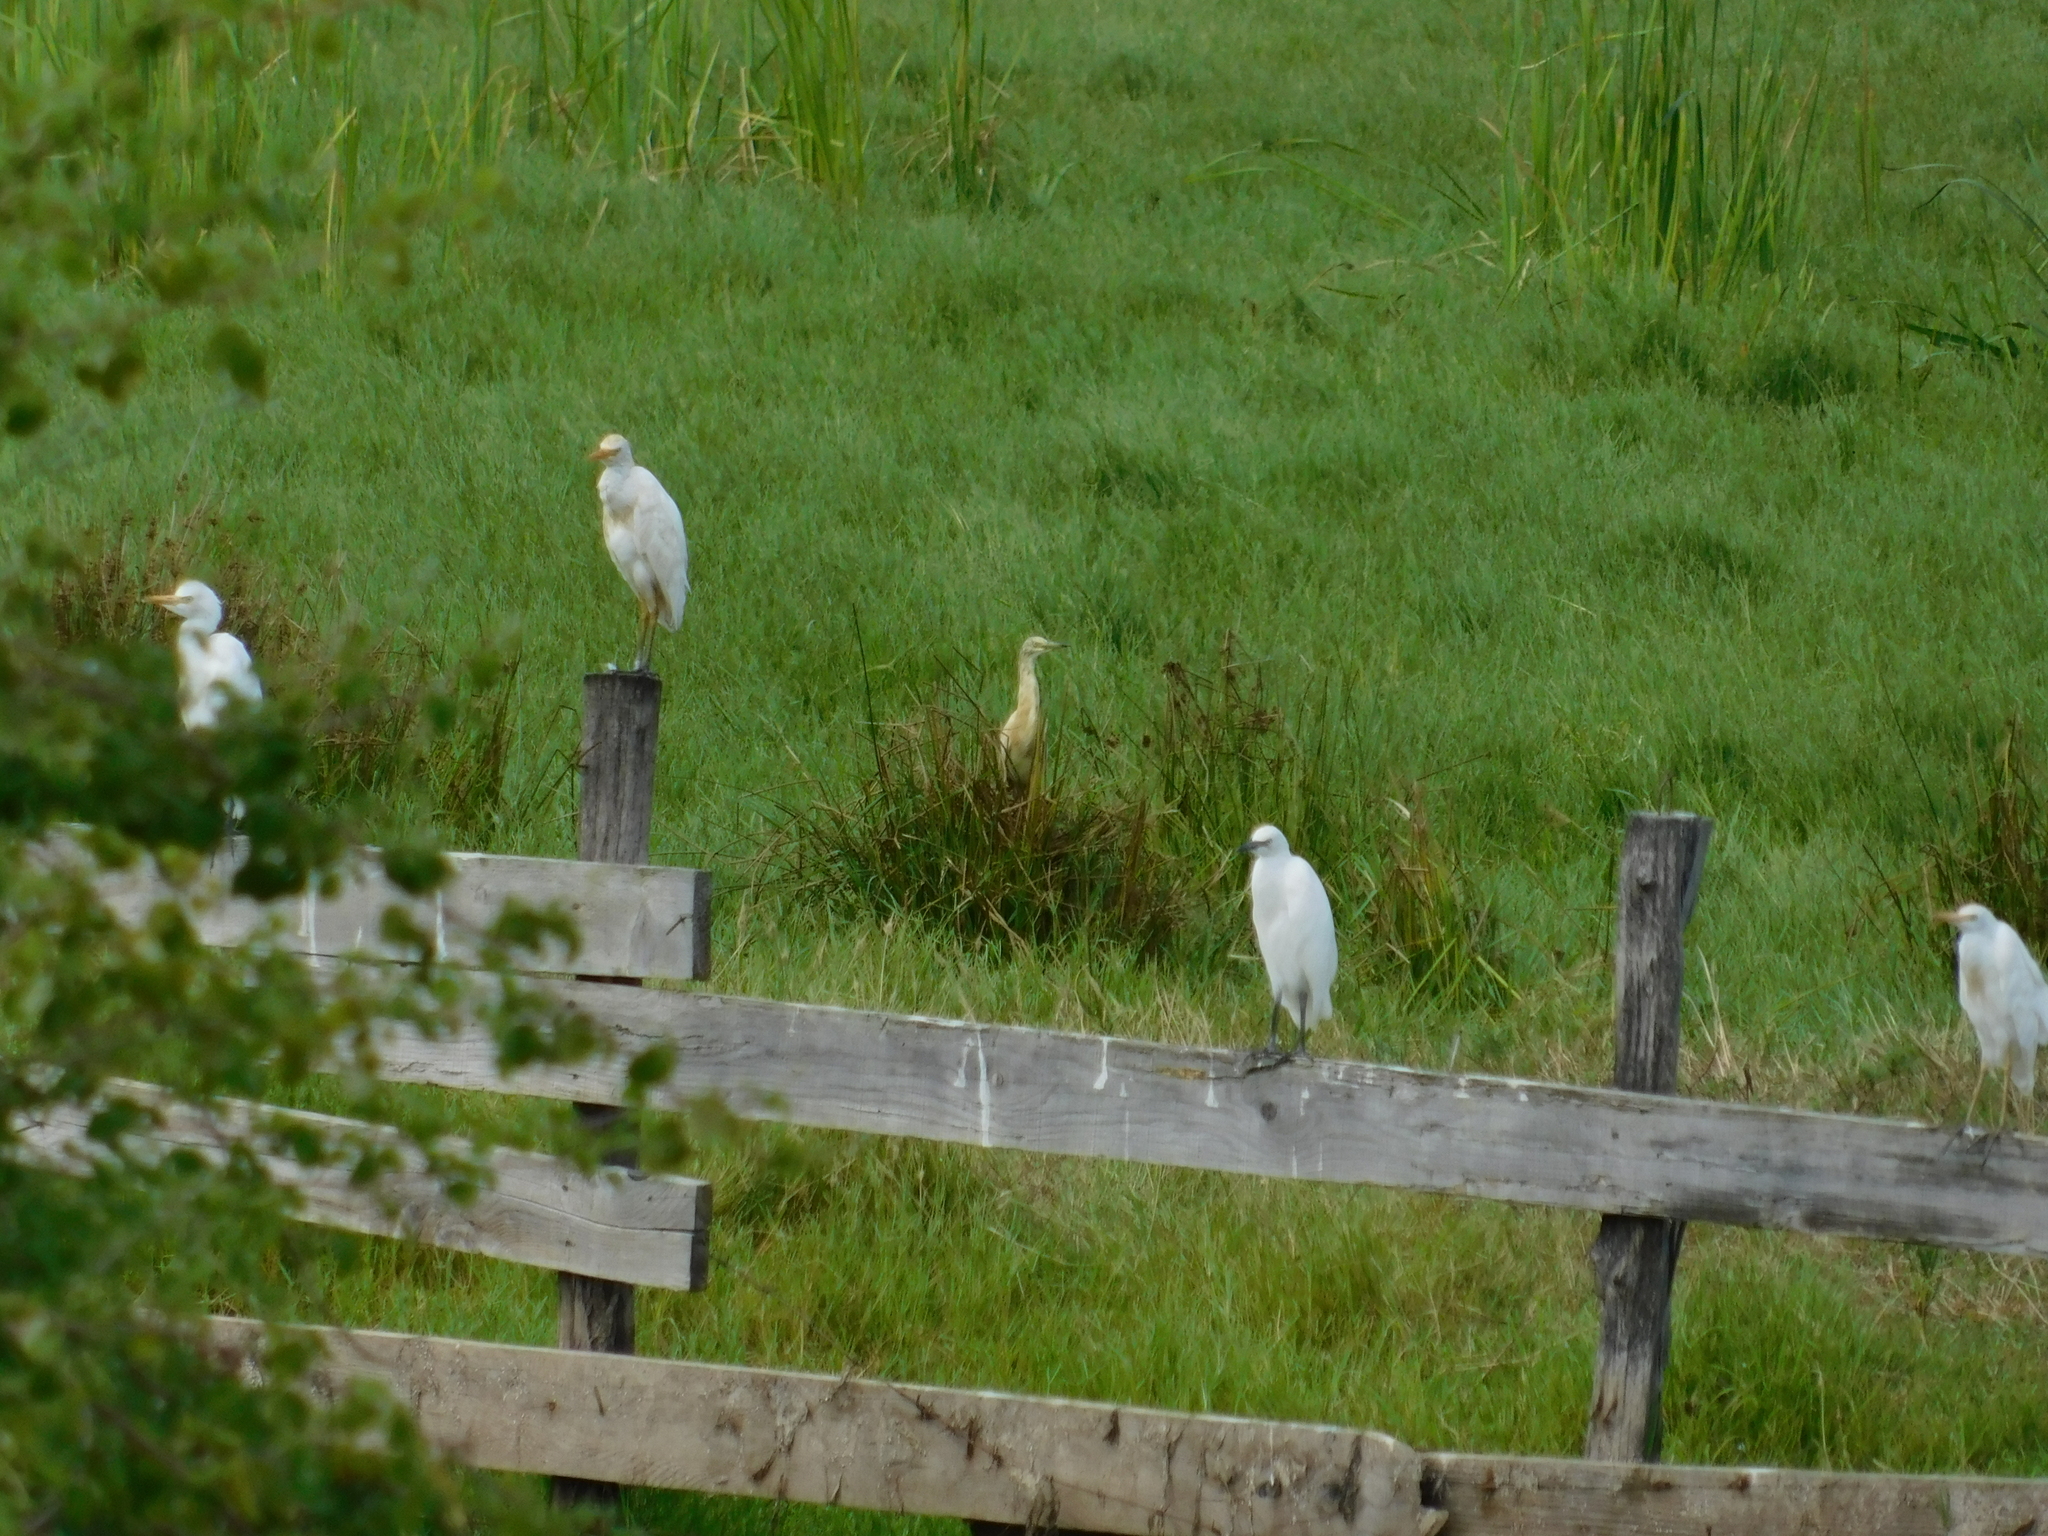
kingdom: Animalia
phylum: Chordata
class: Aves
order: Pelecaniformes
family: Ardeidae
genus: Ardeola
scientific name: Ardeola ralloides
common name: Squacco heron
